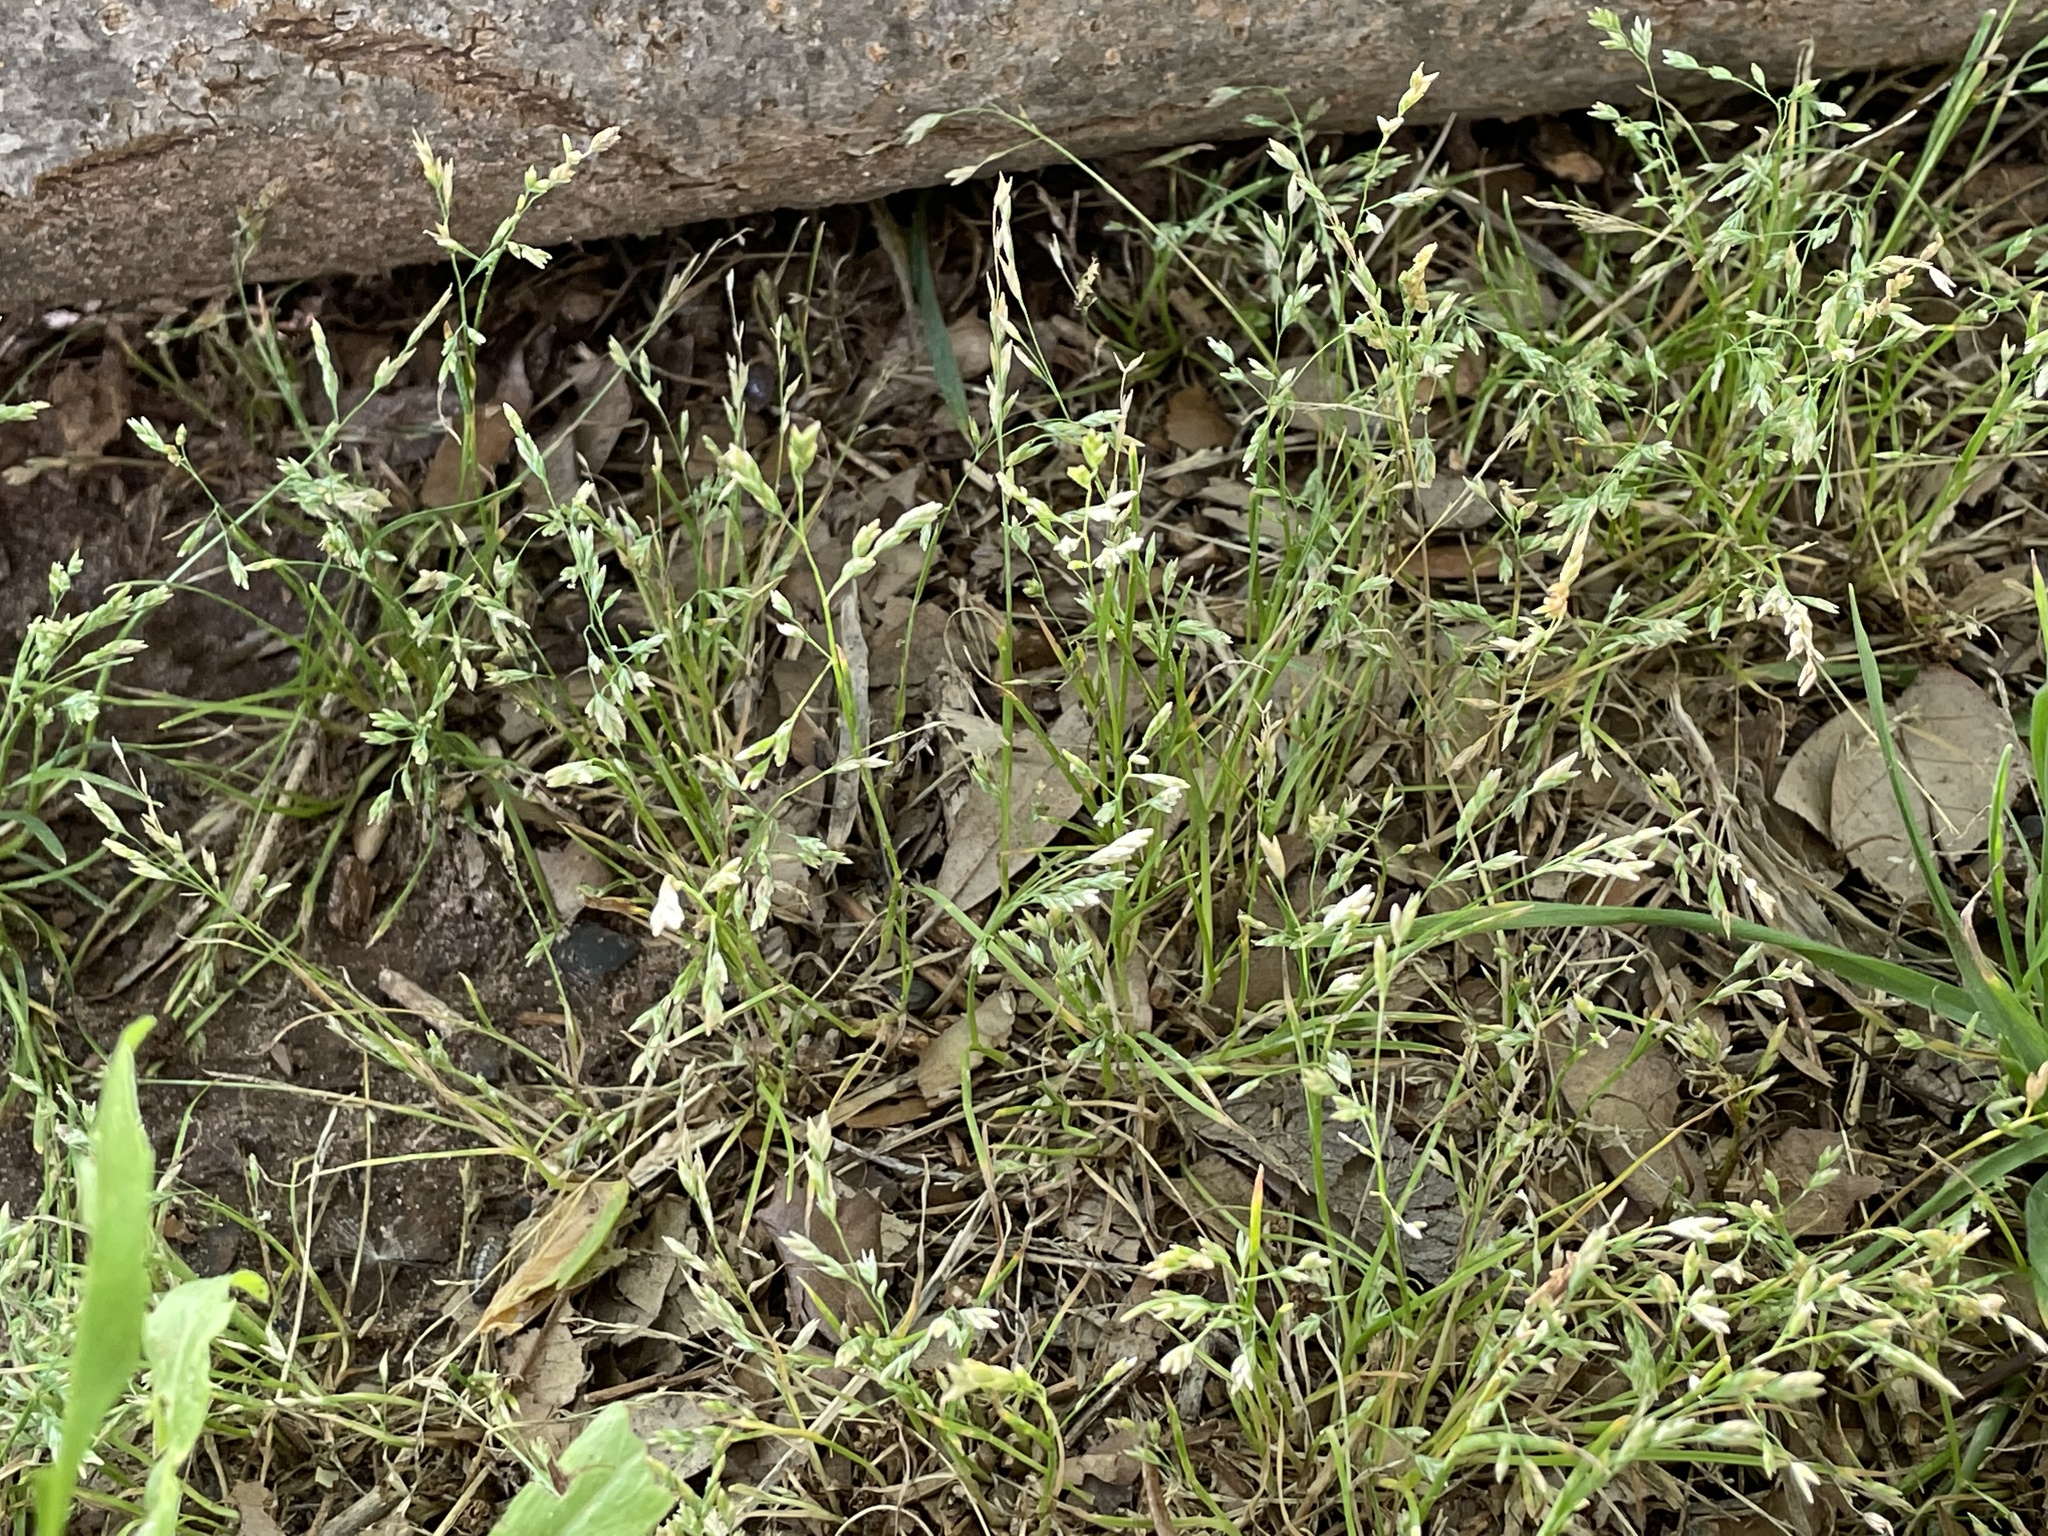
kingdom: Plantae
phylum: Tracheophyta
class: Liliopsida
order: Poales
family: Poaceae
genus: Poa
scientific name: Poa annua
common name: Annual bluegrass
